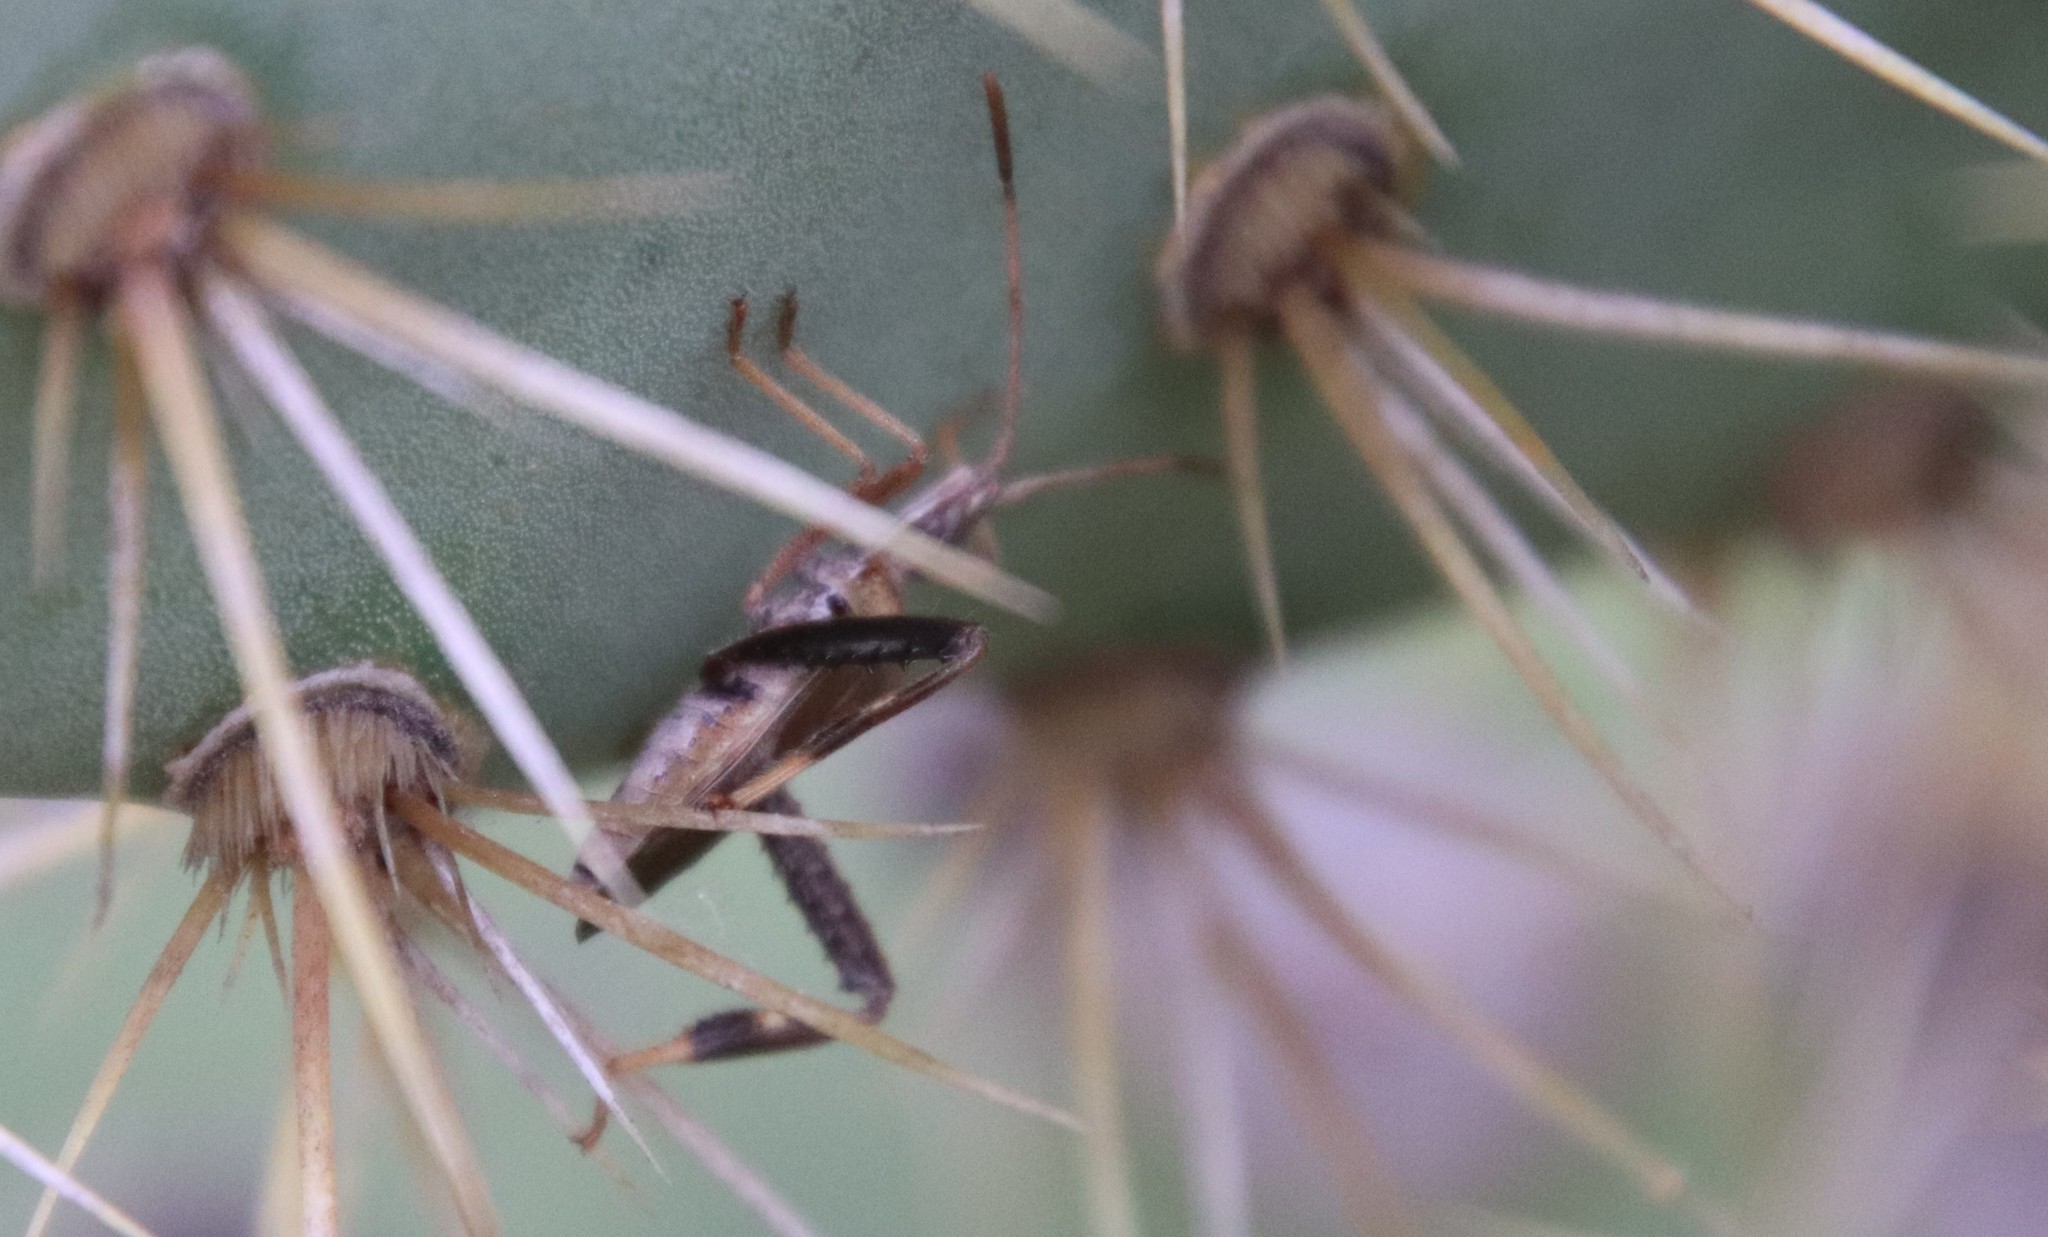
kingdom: Animalia
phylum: Arthropoda
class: Insecta
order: Hemiptera
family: Coreidae
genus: Narnia
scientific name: Narnia femorata
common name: Leaf-footed cactus bug
